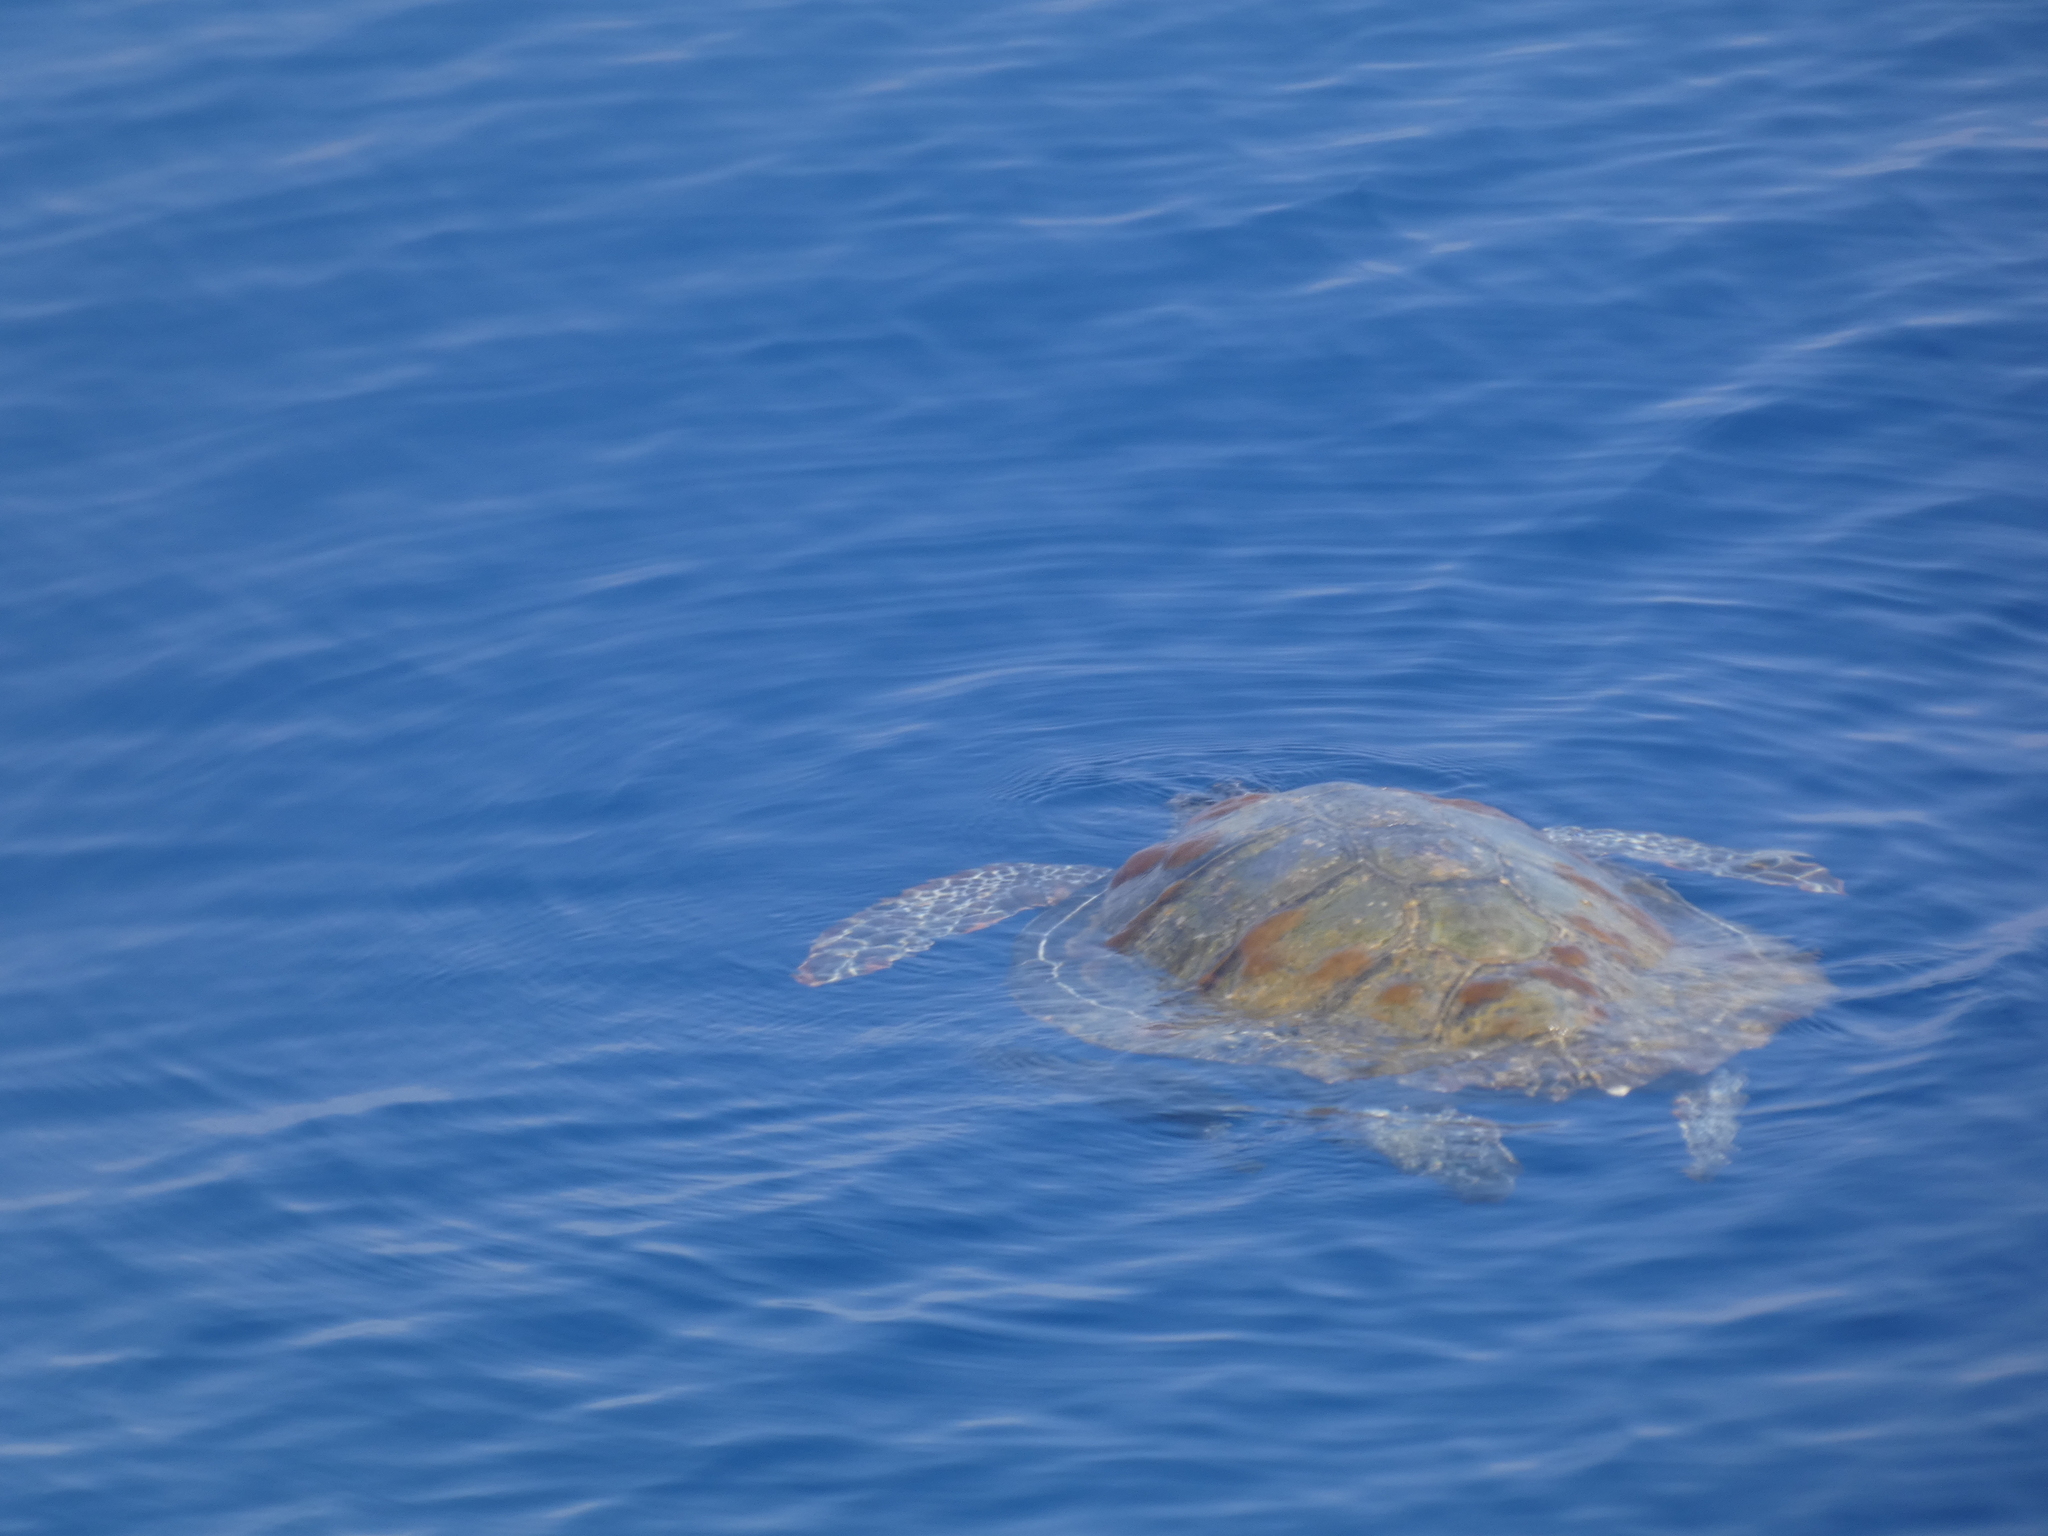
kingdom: Animalia
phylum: Chordata
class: Testudines
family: Cheloniidae
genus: Caretta
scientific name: Caretta caretta
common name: Loggerhead sea turtle
